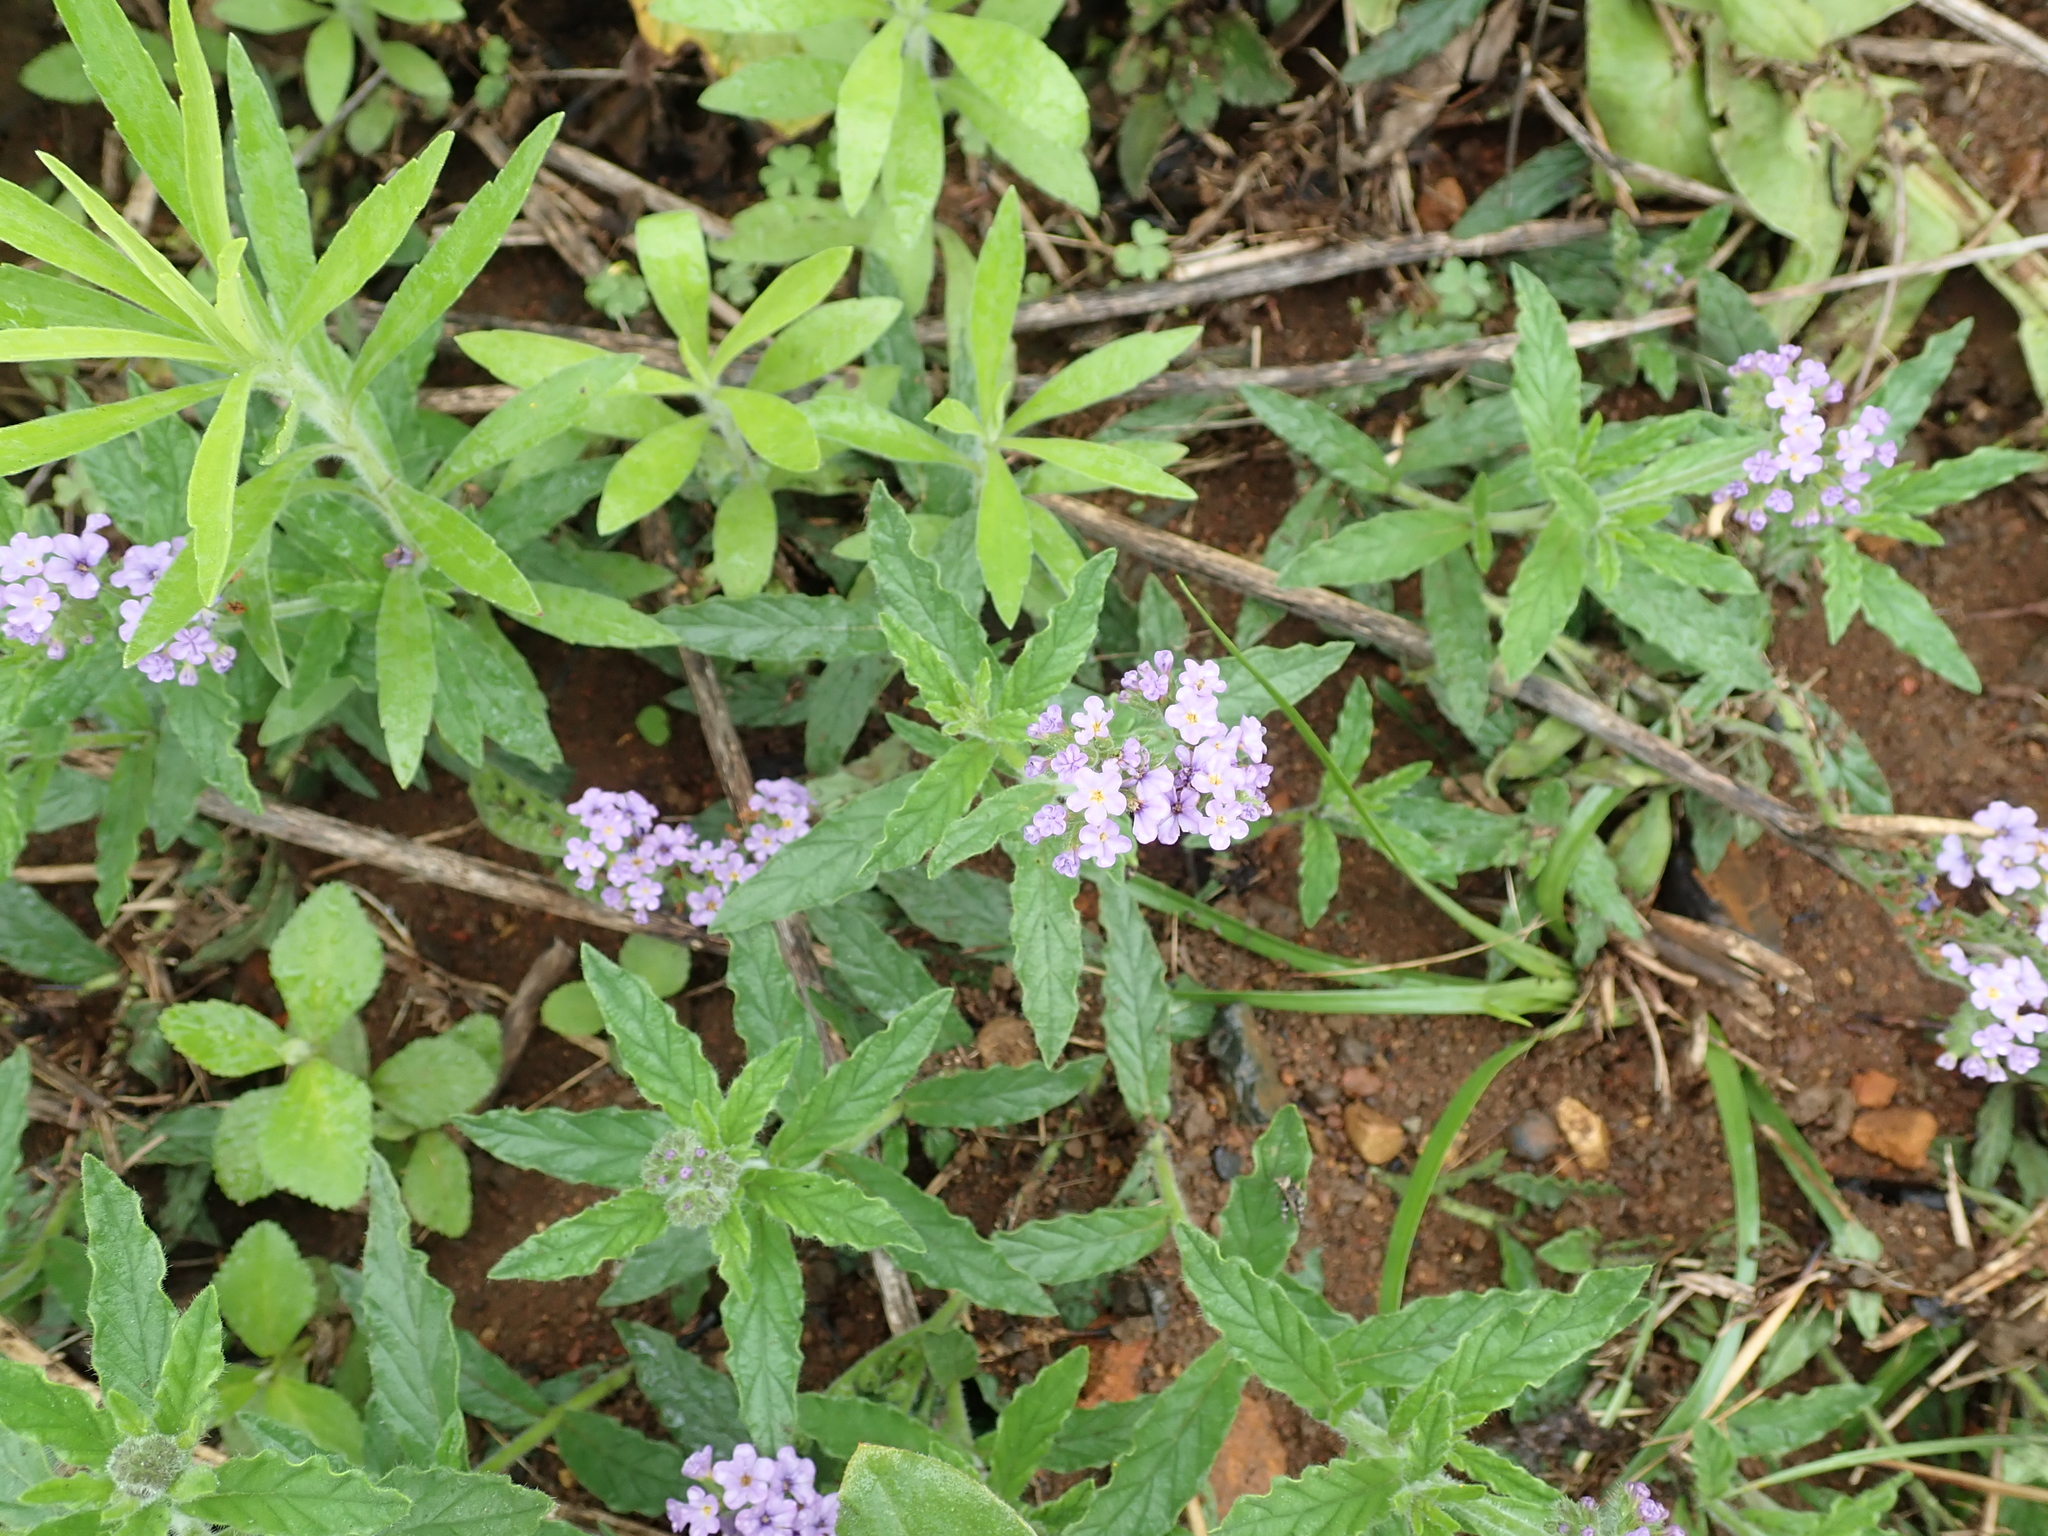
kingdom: Plantae
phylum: Tracheophyta
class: Magnoliopsida
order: Boraginales
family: Heliotropiaceae
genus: Heliotropium
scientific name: Heliotropium amplexicaule
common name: Clasping heliotrope
